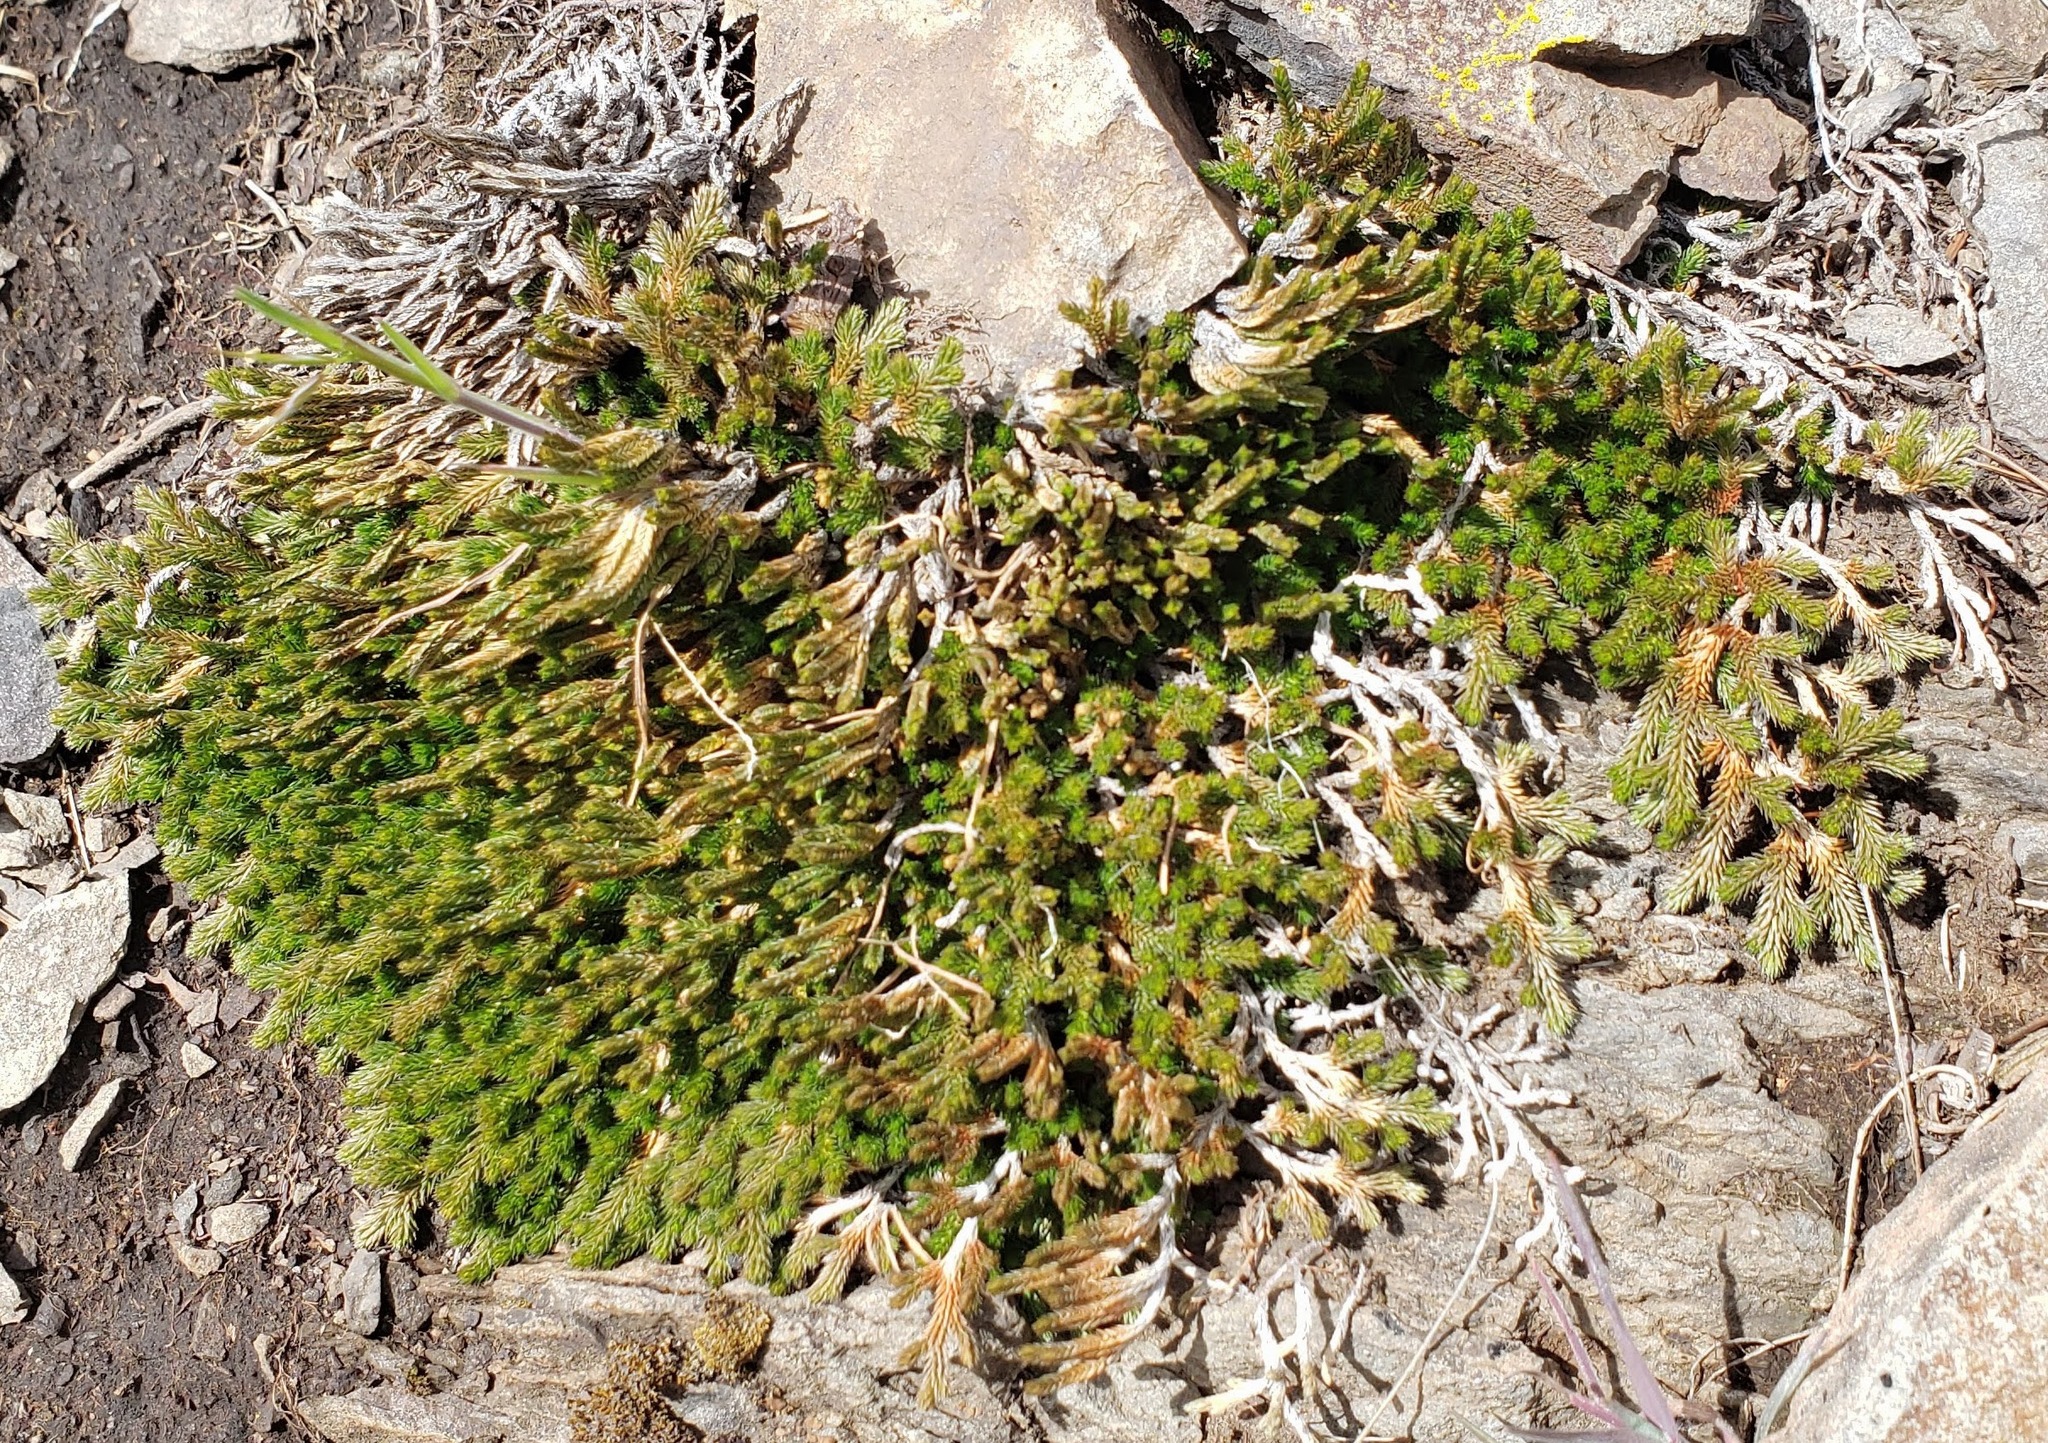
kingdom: Plantae
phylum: Tracheophyta
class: Lycopodiopsida
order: Selaginellales
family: Selaginellaceae
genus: Selaginella
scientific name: Selaginella wallacei
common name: Wallace's selaginella
